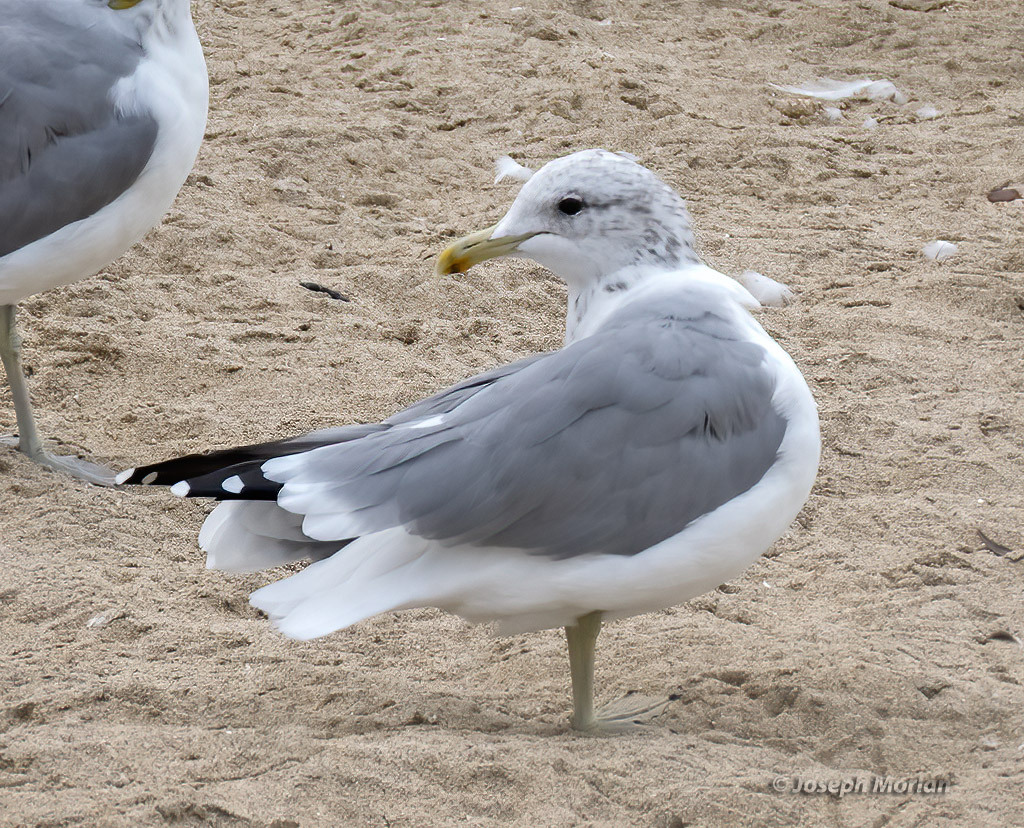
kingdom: Animalia
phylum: Chordata
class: Aves
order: Charadriiformes
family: Laridae
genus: Larus
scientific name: Larus californicus
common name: California gull
